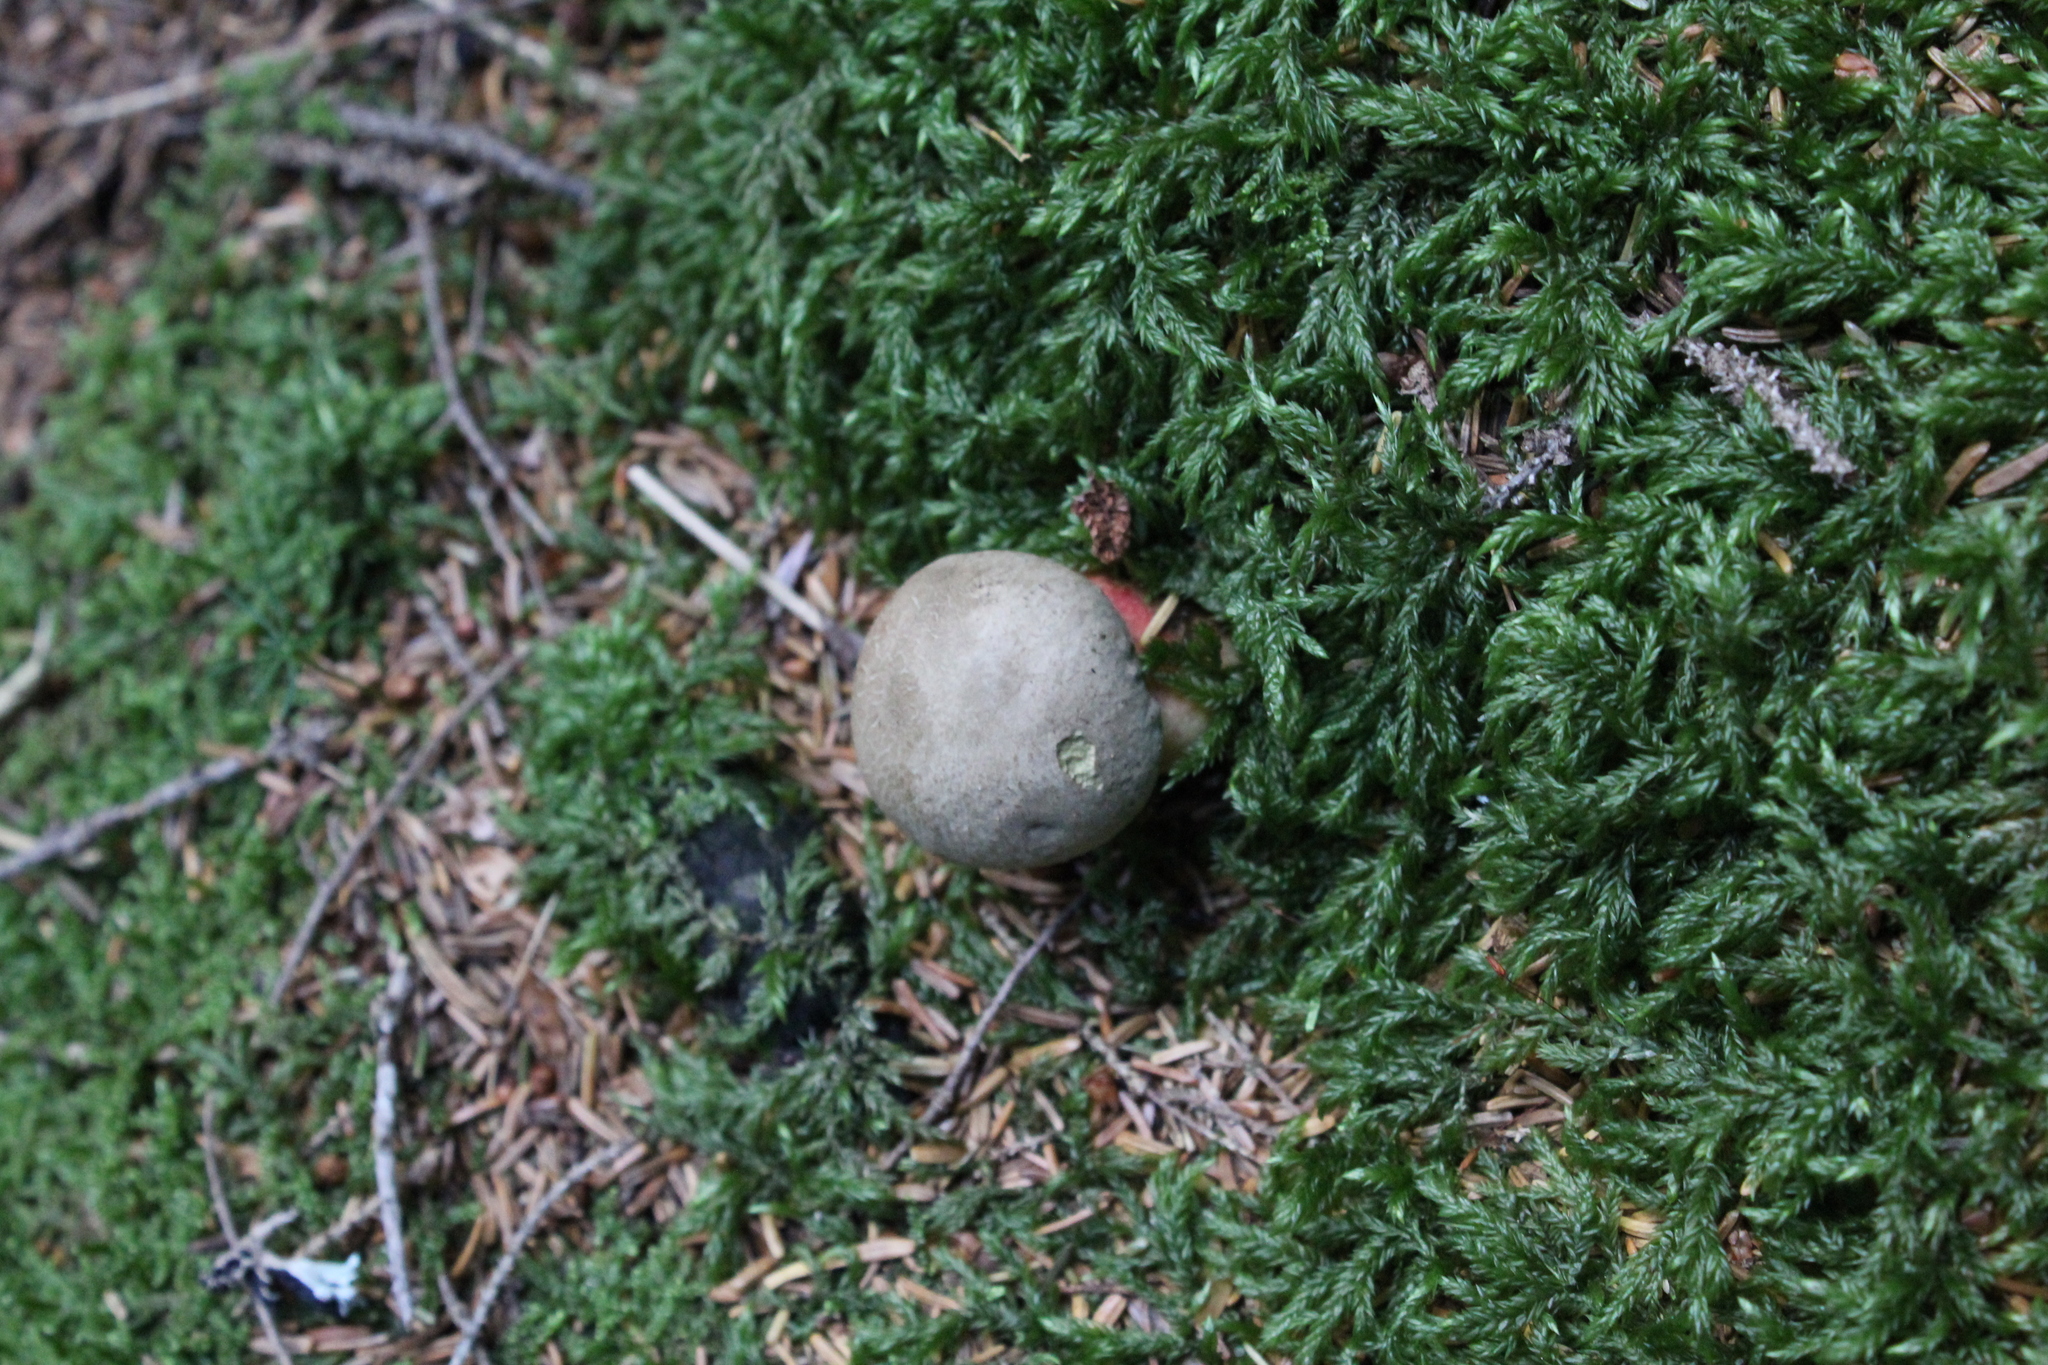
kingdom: Fungi
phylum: Basidiomycota
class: Agaricomycetes
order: Boletales
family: Boletaceae
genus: Caloboletus
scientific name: Caloboletus calopus
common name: Bitter beech bolete
